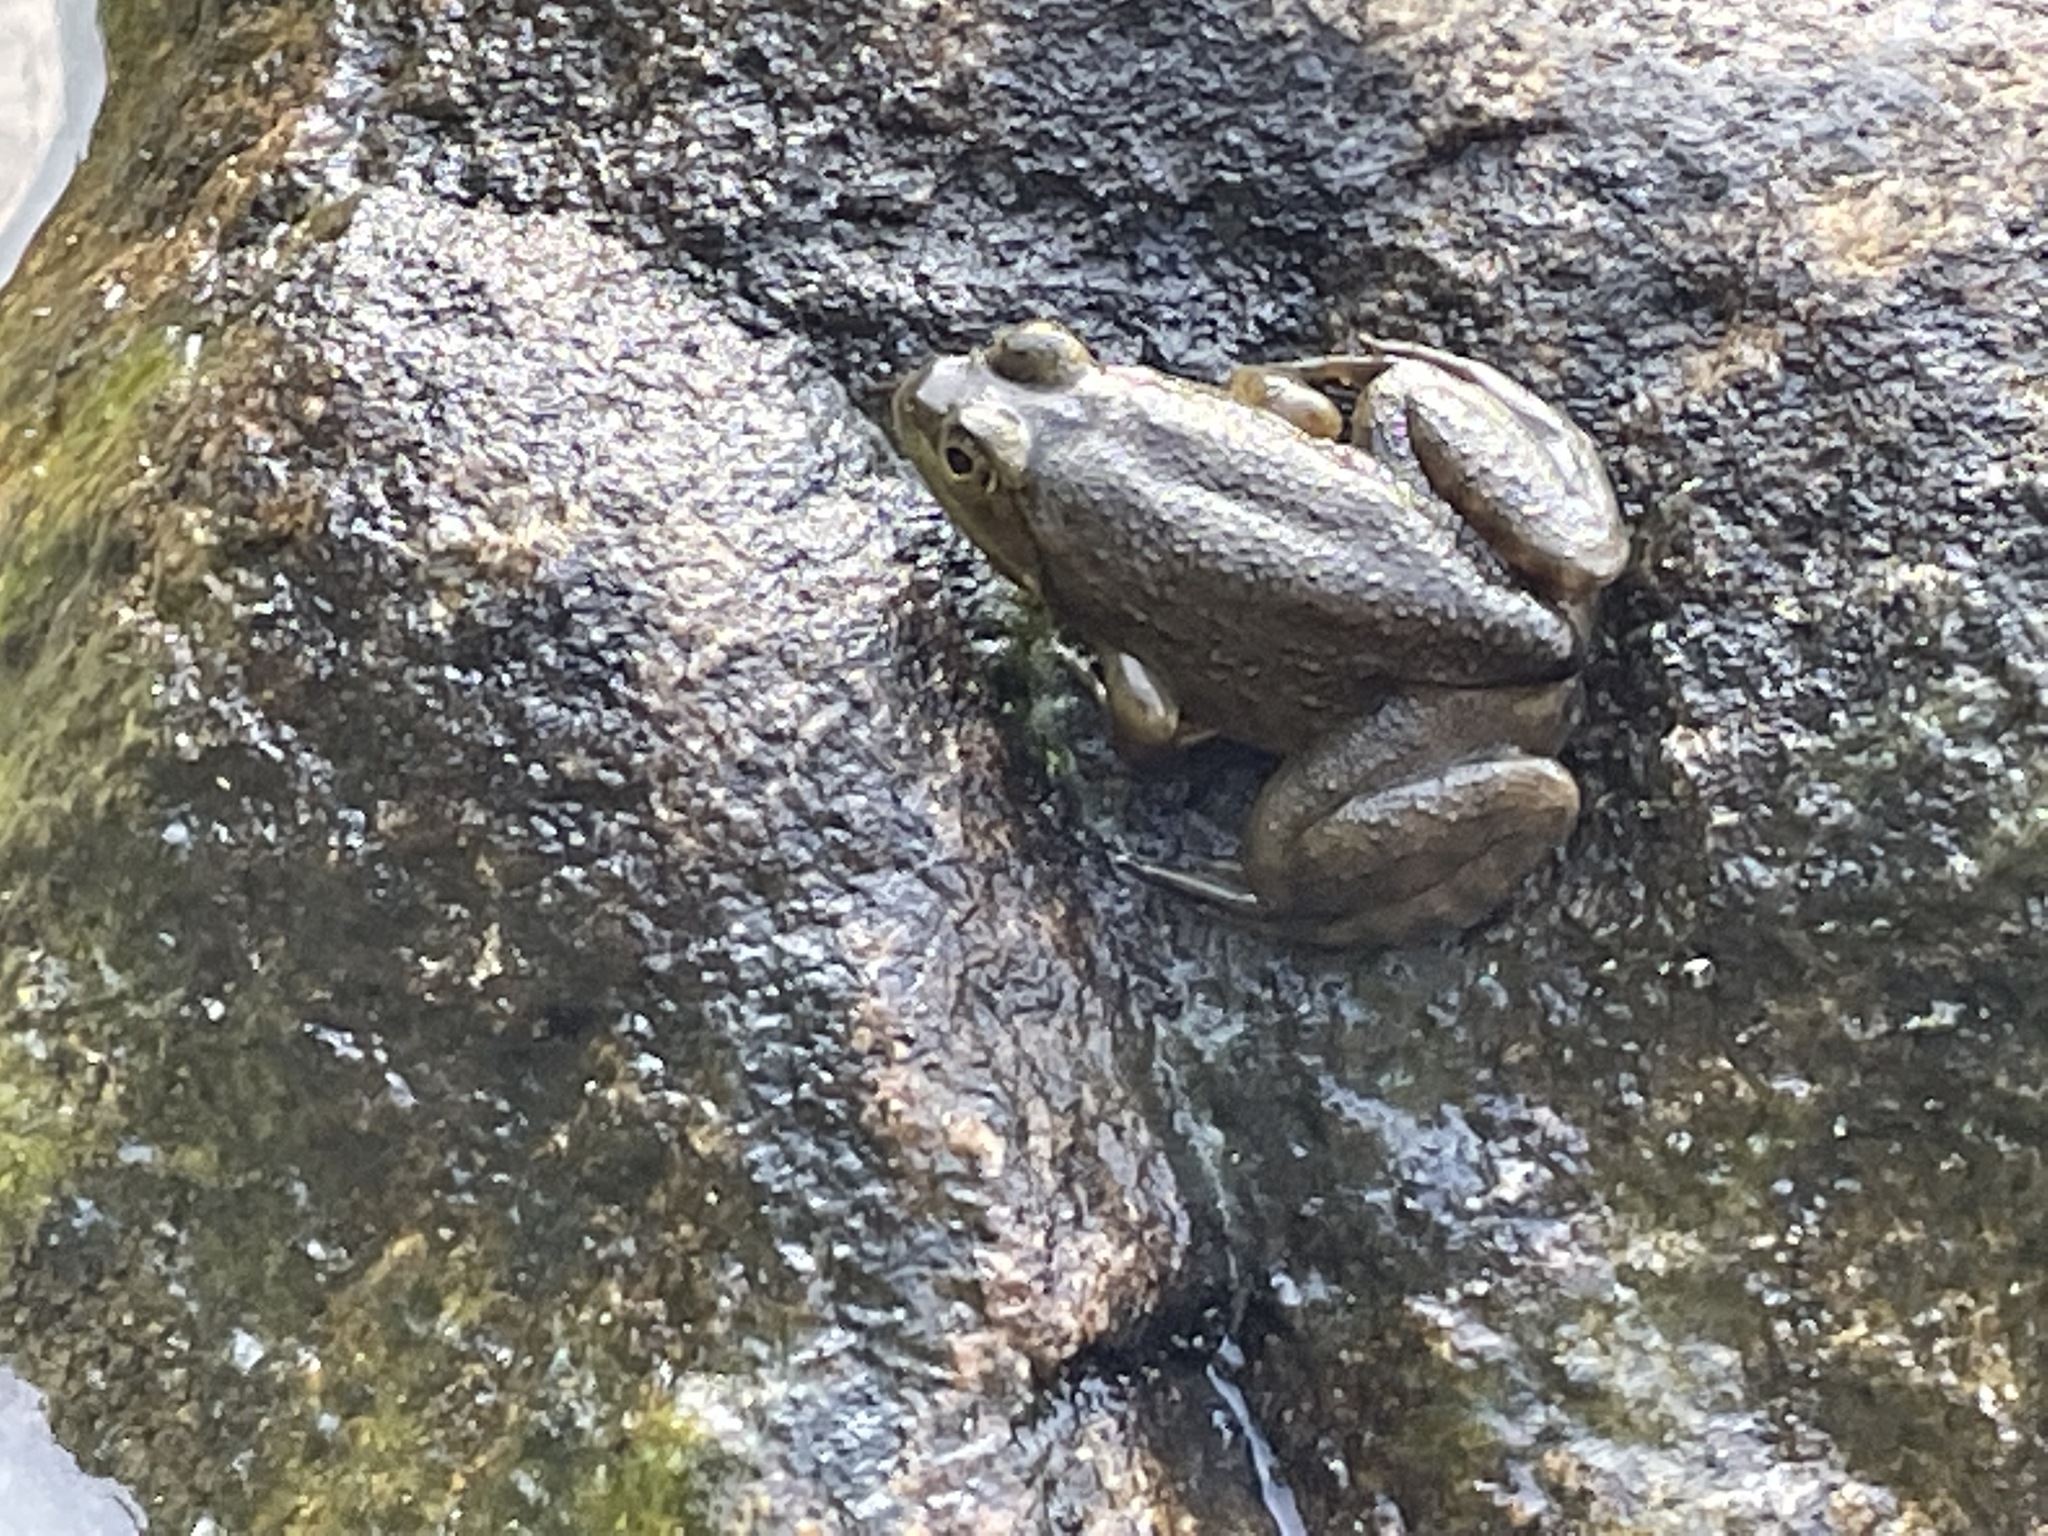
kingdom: Animalia
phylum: Chordata
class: Amphibia
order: Anura
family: Ranidae
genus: Lithobates
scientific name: Lithobates catesbeianus
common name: American bullfrog
